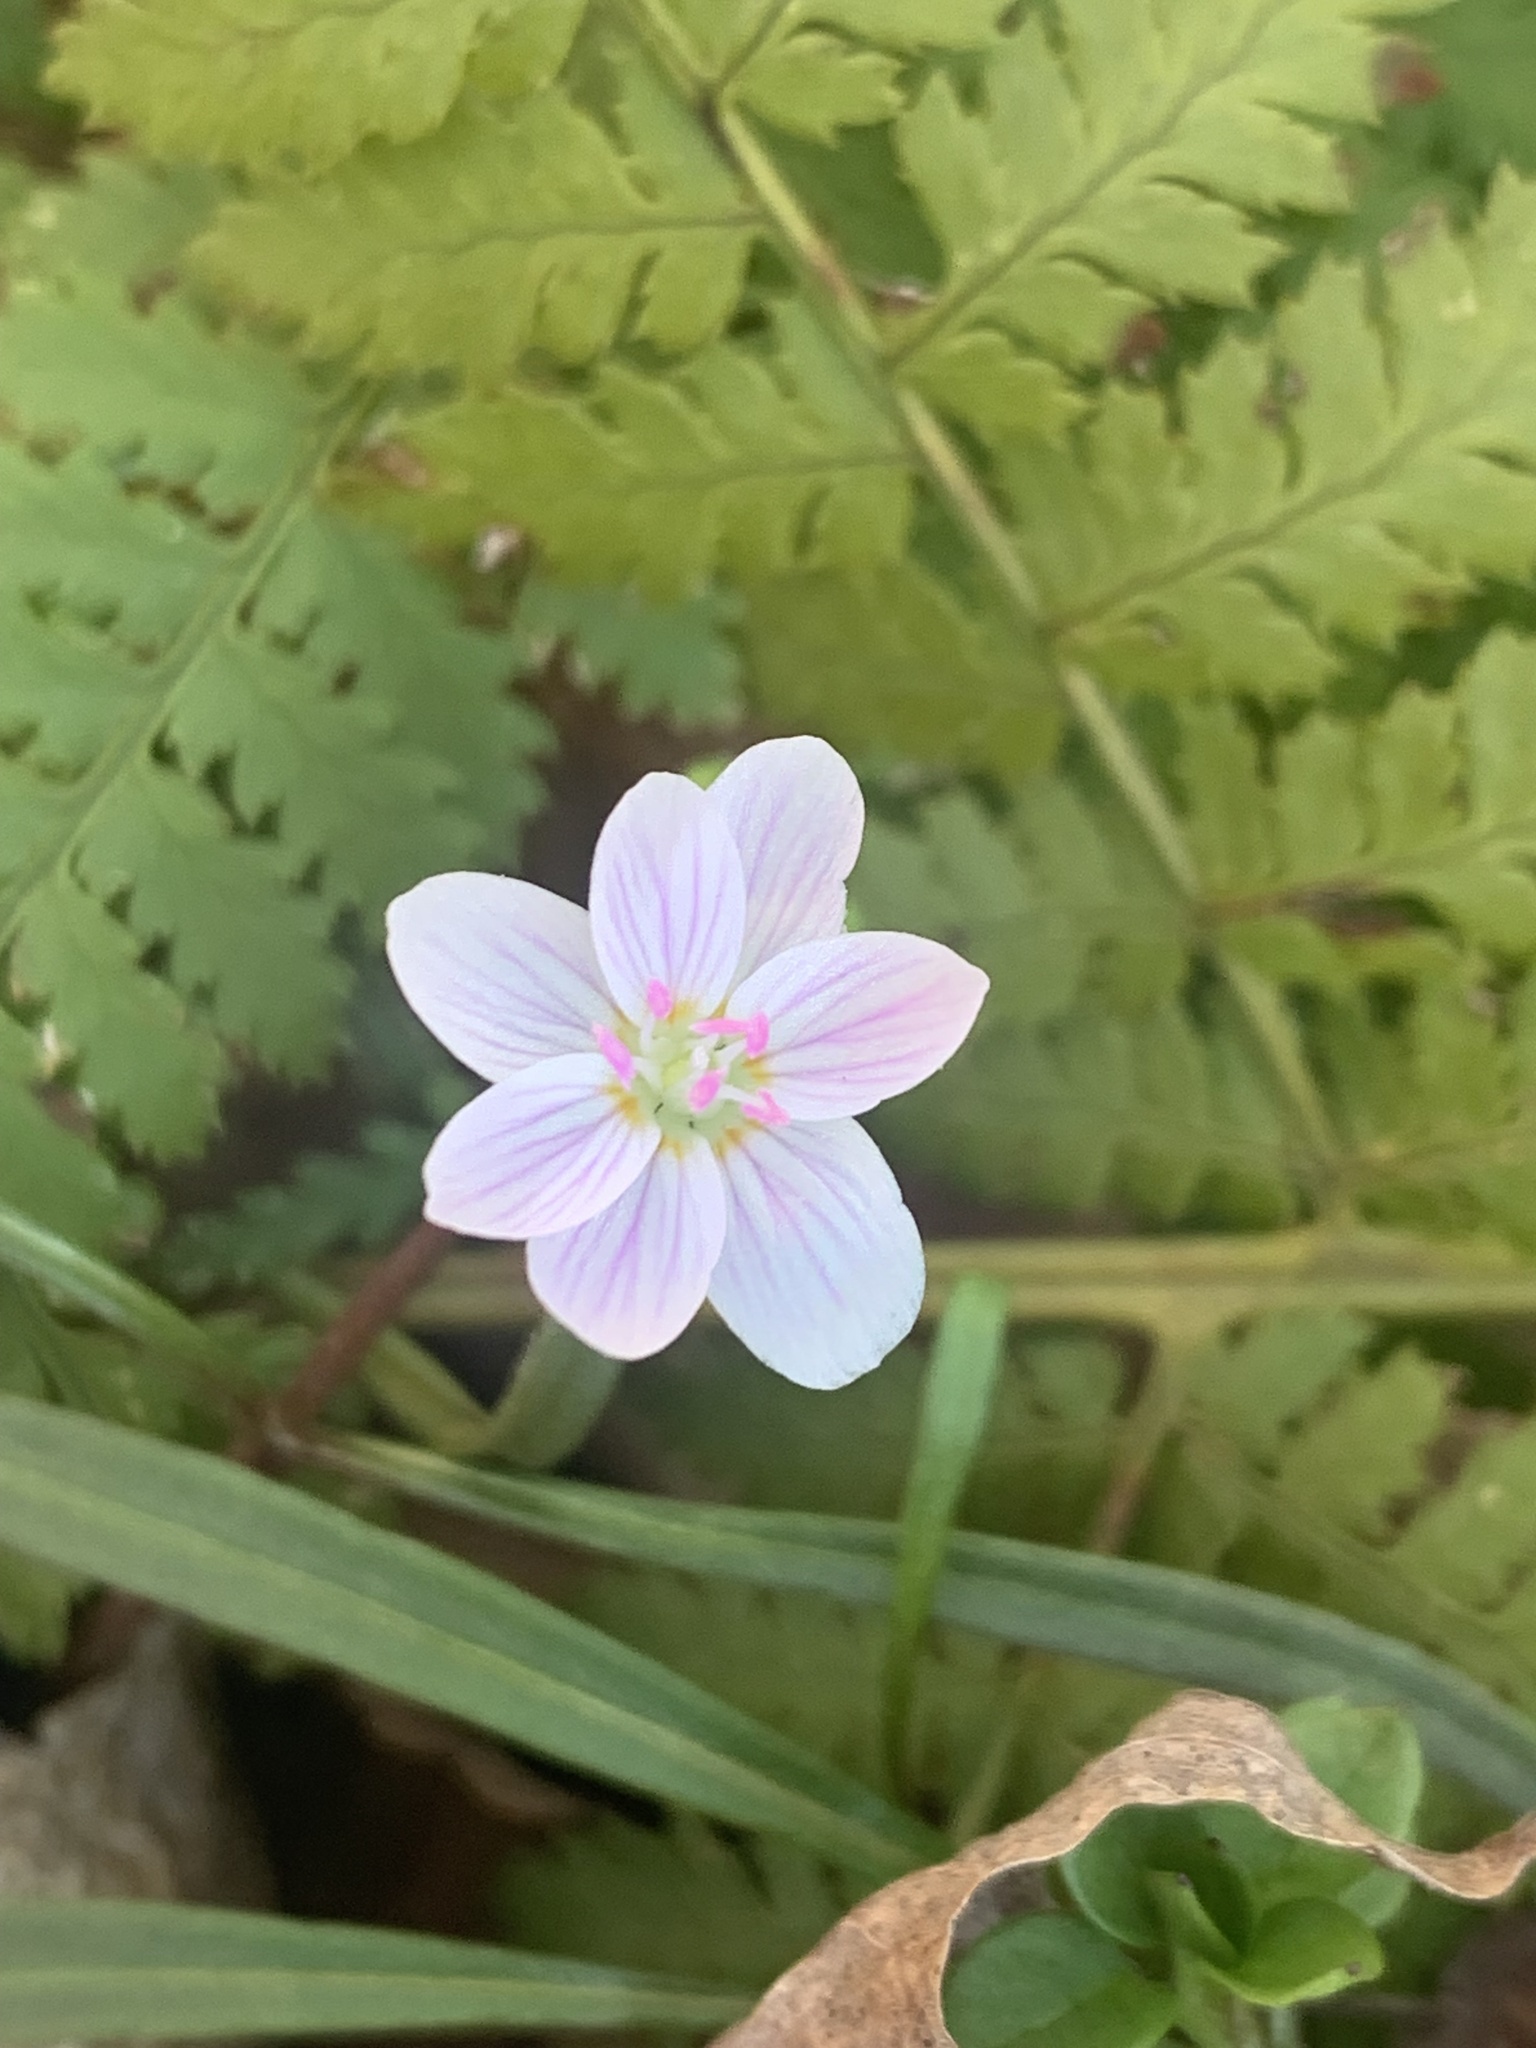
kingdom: Plantae
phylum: Tracheophyta
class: Magnoliopsida
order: Caryophyllales
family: Montiaceae
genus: Claytonia
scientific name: Claytonia virginica
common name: Virginia springbeauty
